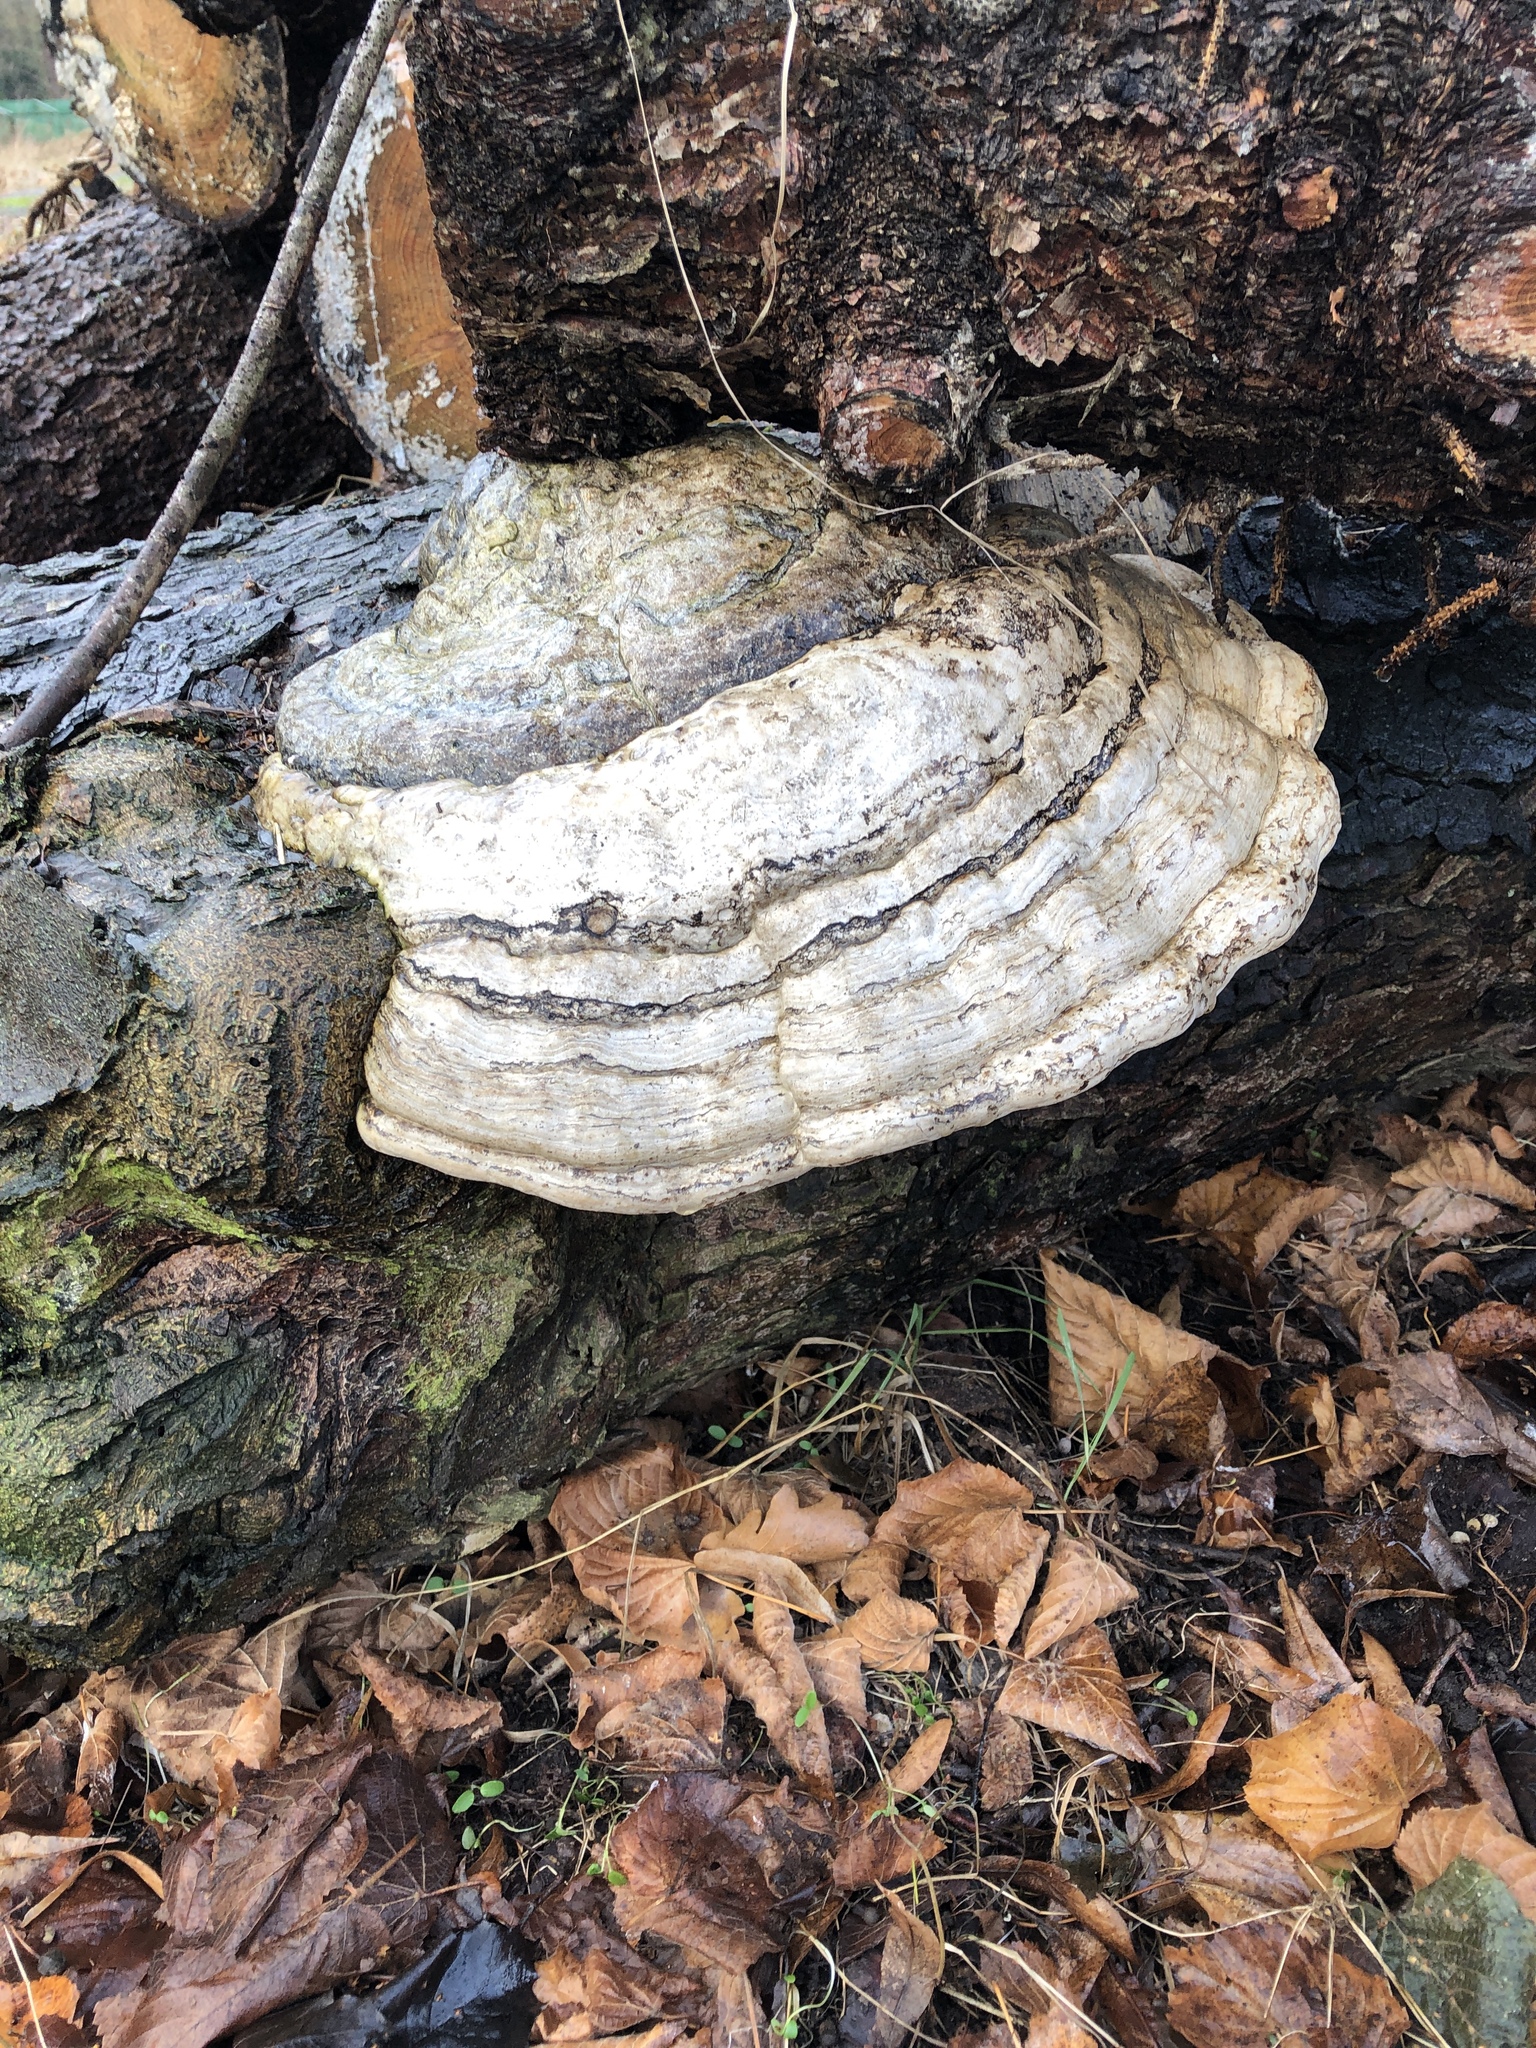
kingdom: Fungi
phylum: Basidiomycota
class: Agaricomycetes
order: Polyporales
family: Polyporaceae
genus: Fomes
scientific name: Fomes fomentarius
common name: Hoof fungus
